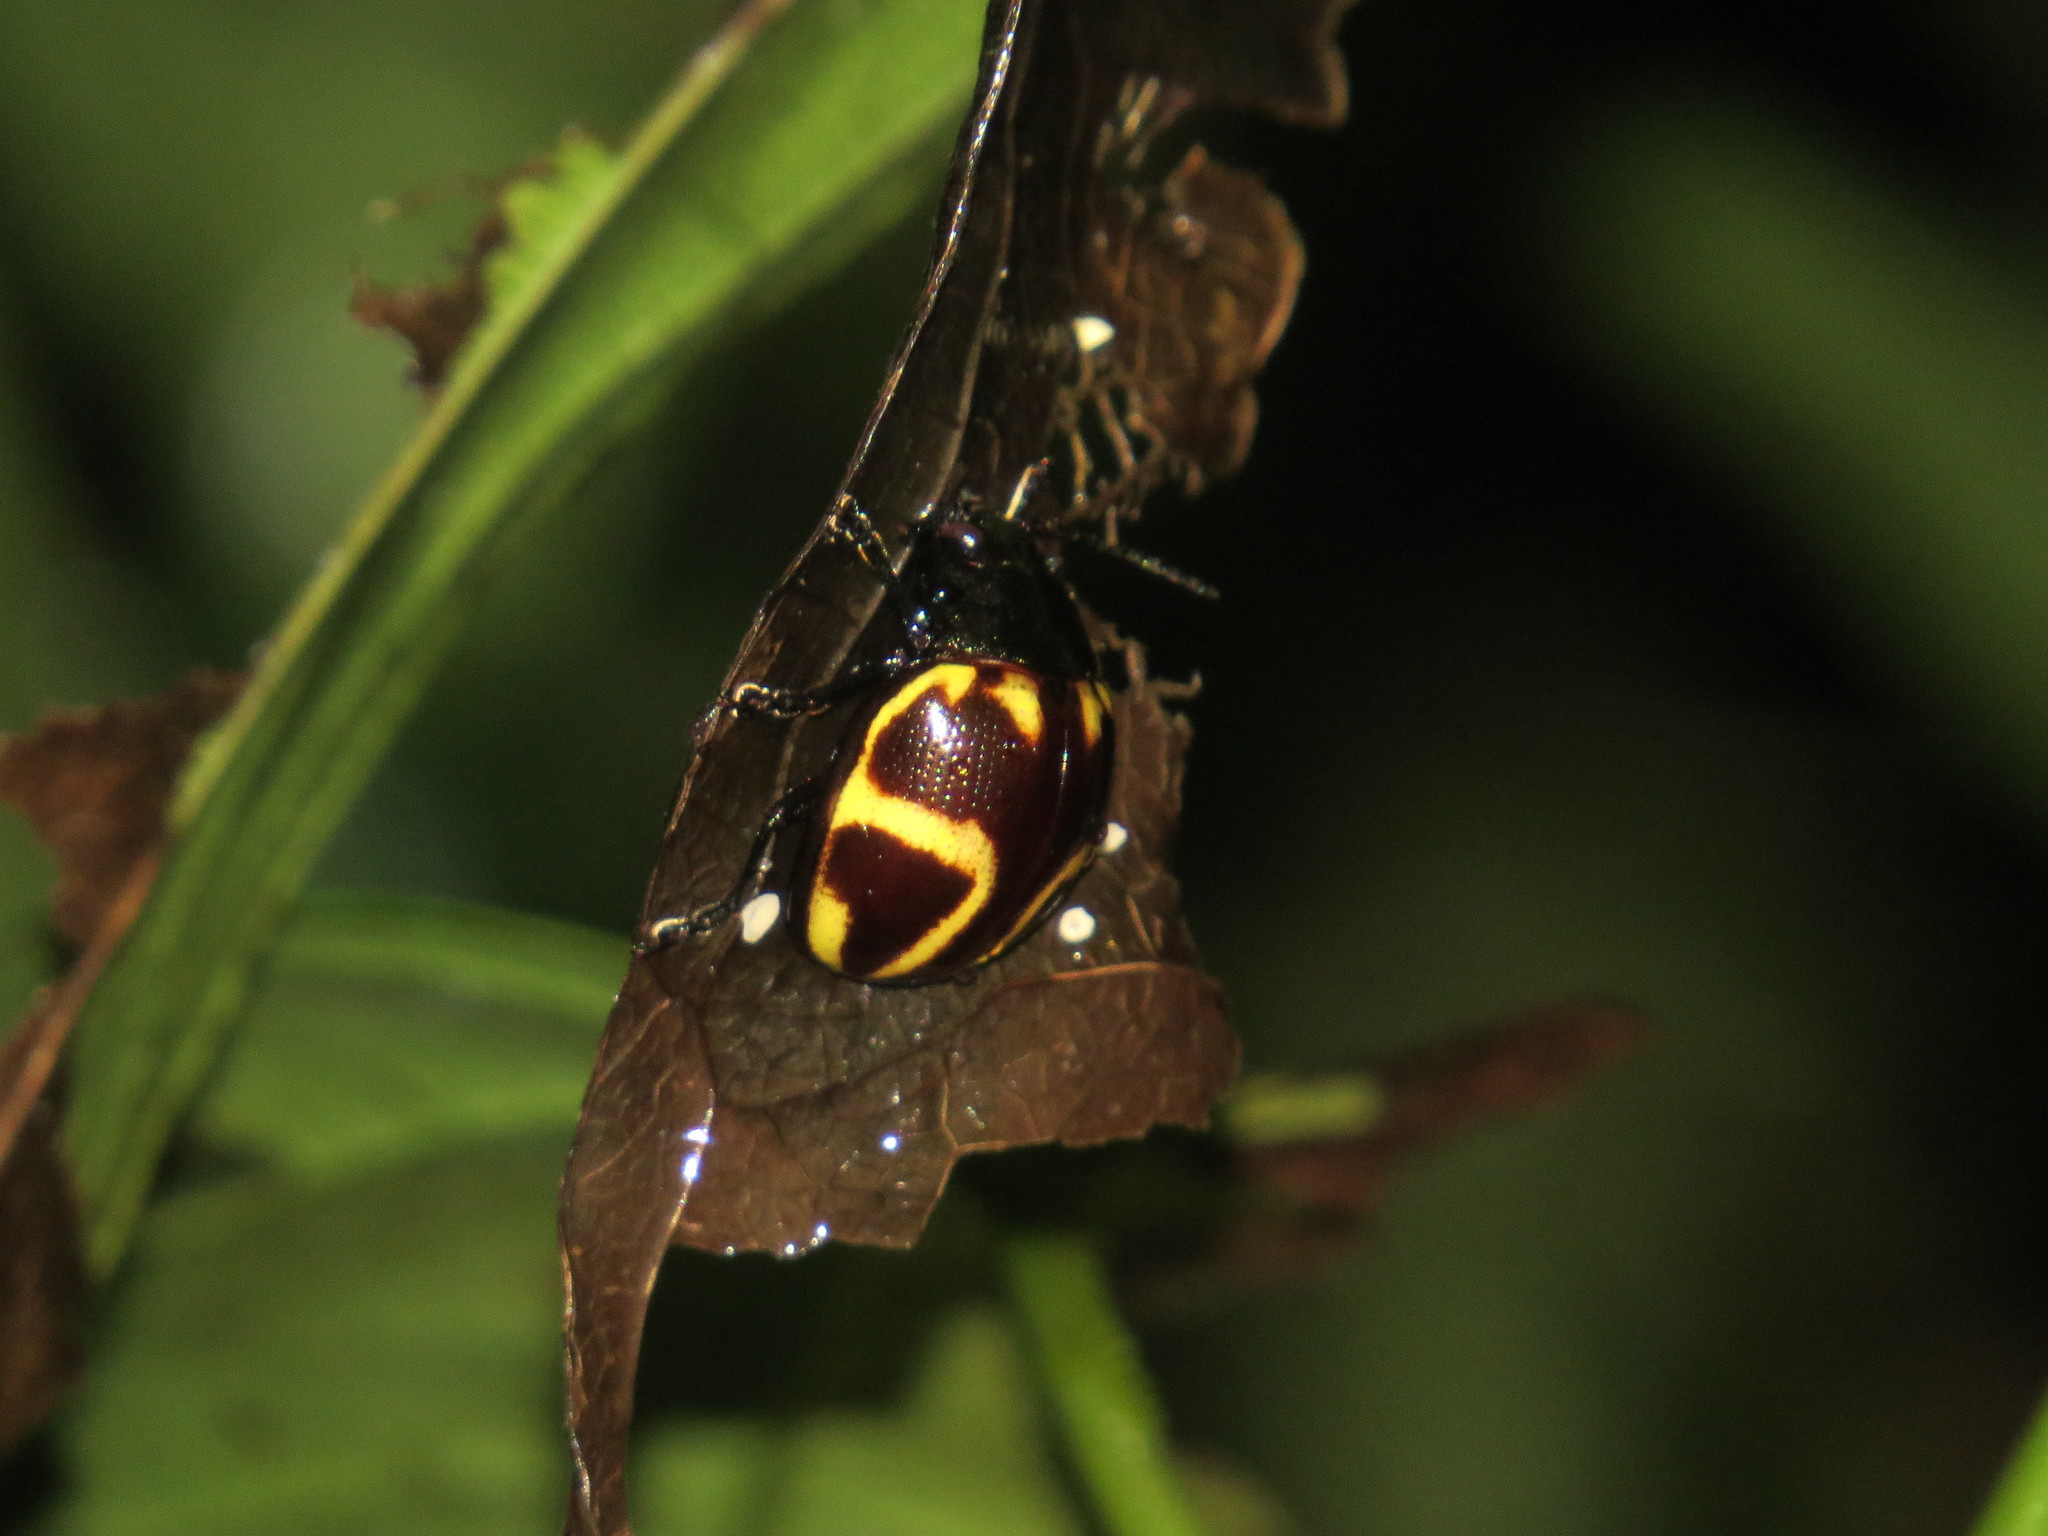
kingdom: Animalia
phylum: Arthropoda
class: Insecta
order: Coleoptera
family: Chrysomelidae
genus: Platyphora
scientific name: Platyphora
